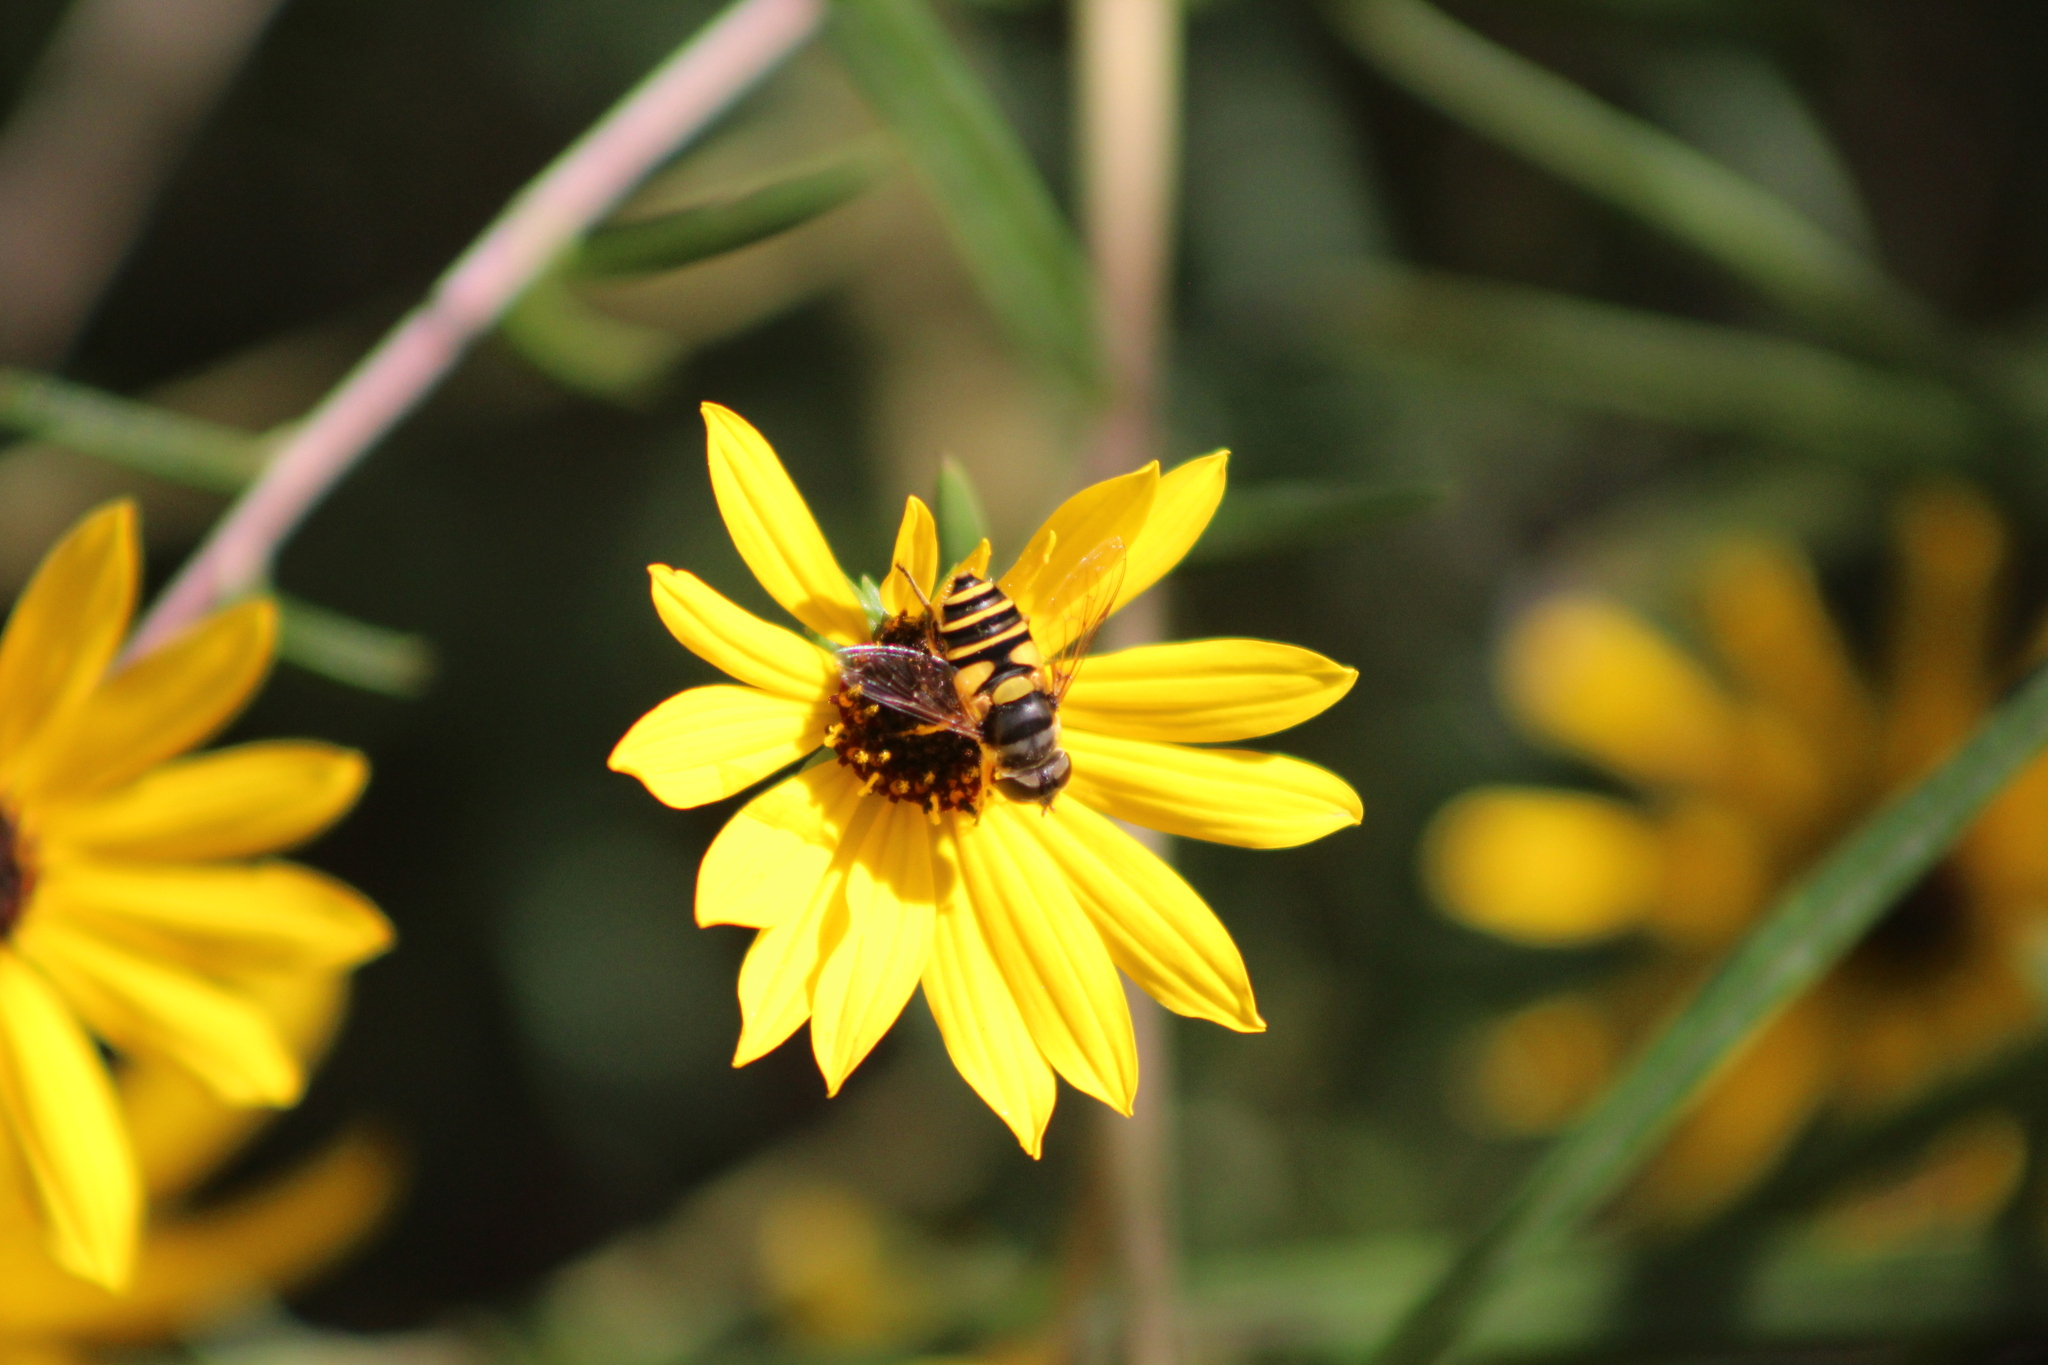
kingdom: Animalia
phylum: Arthropoda
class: Insecta
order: Diptera
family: Syrphidae
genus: Eristalis
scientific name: Eristalis transversa
